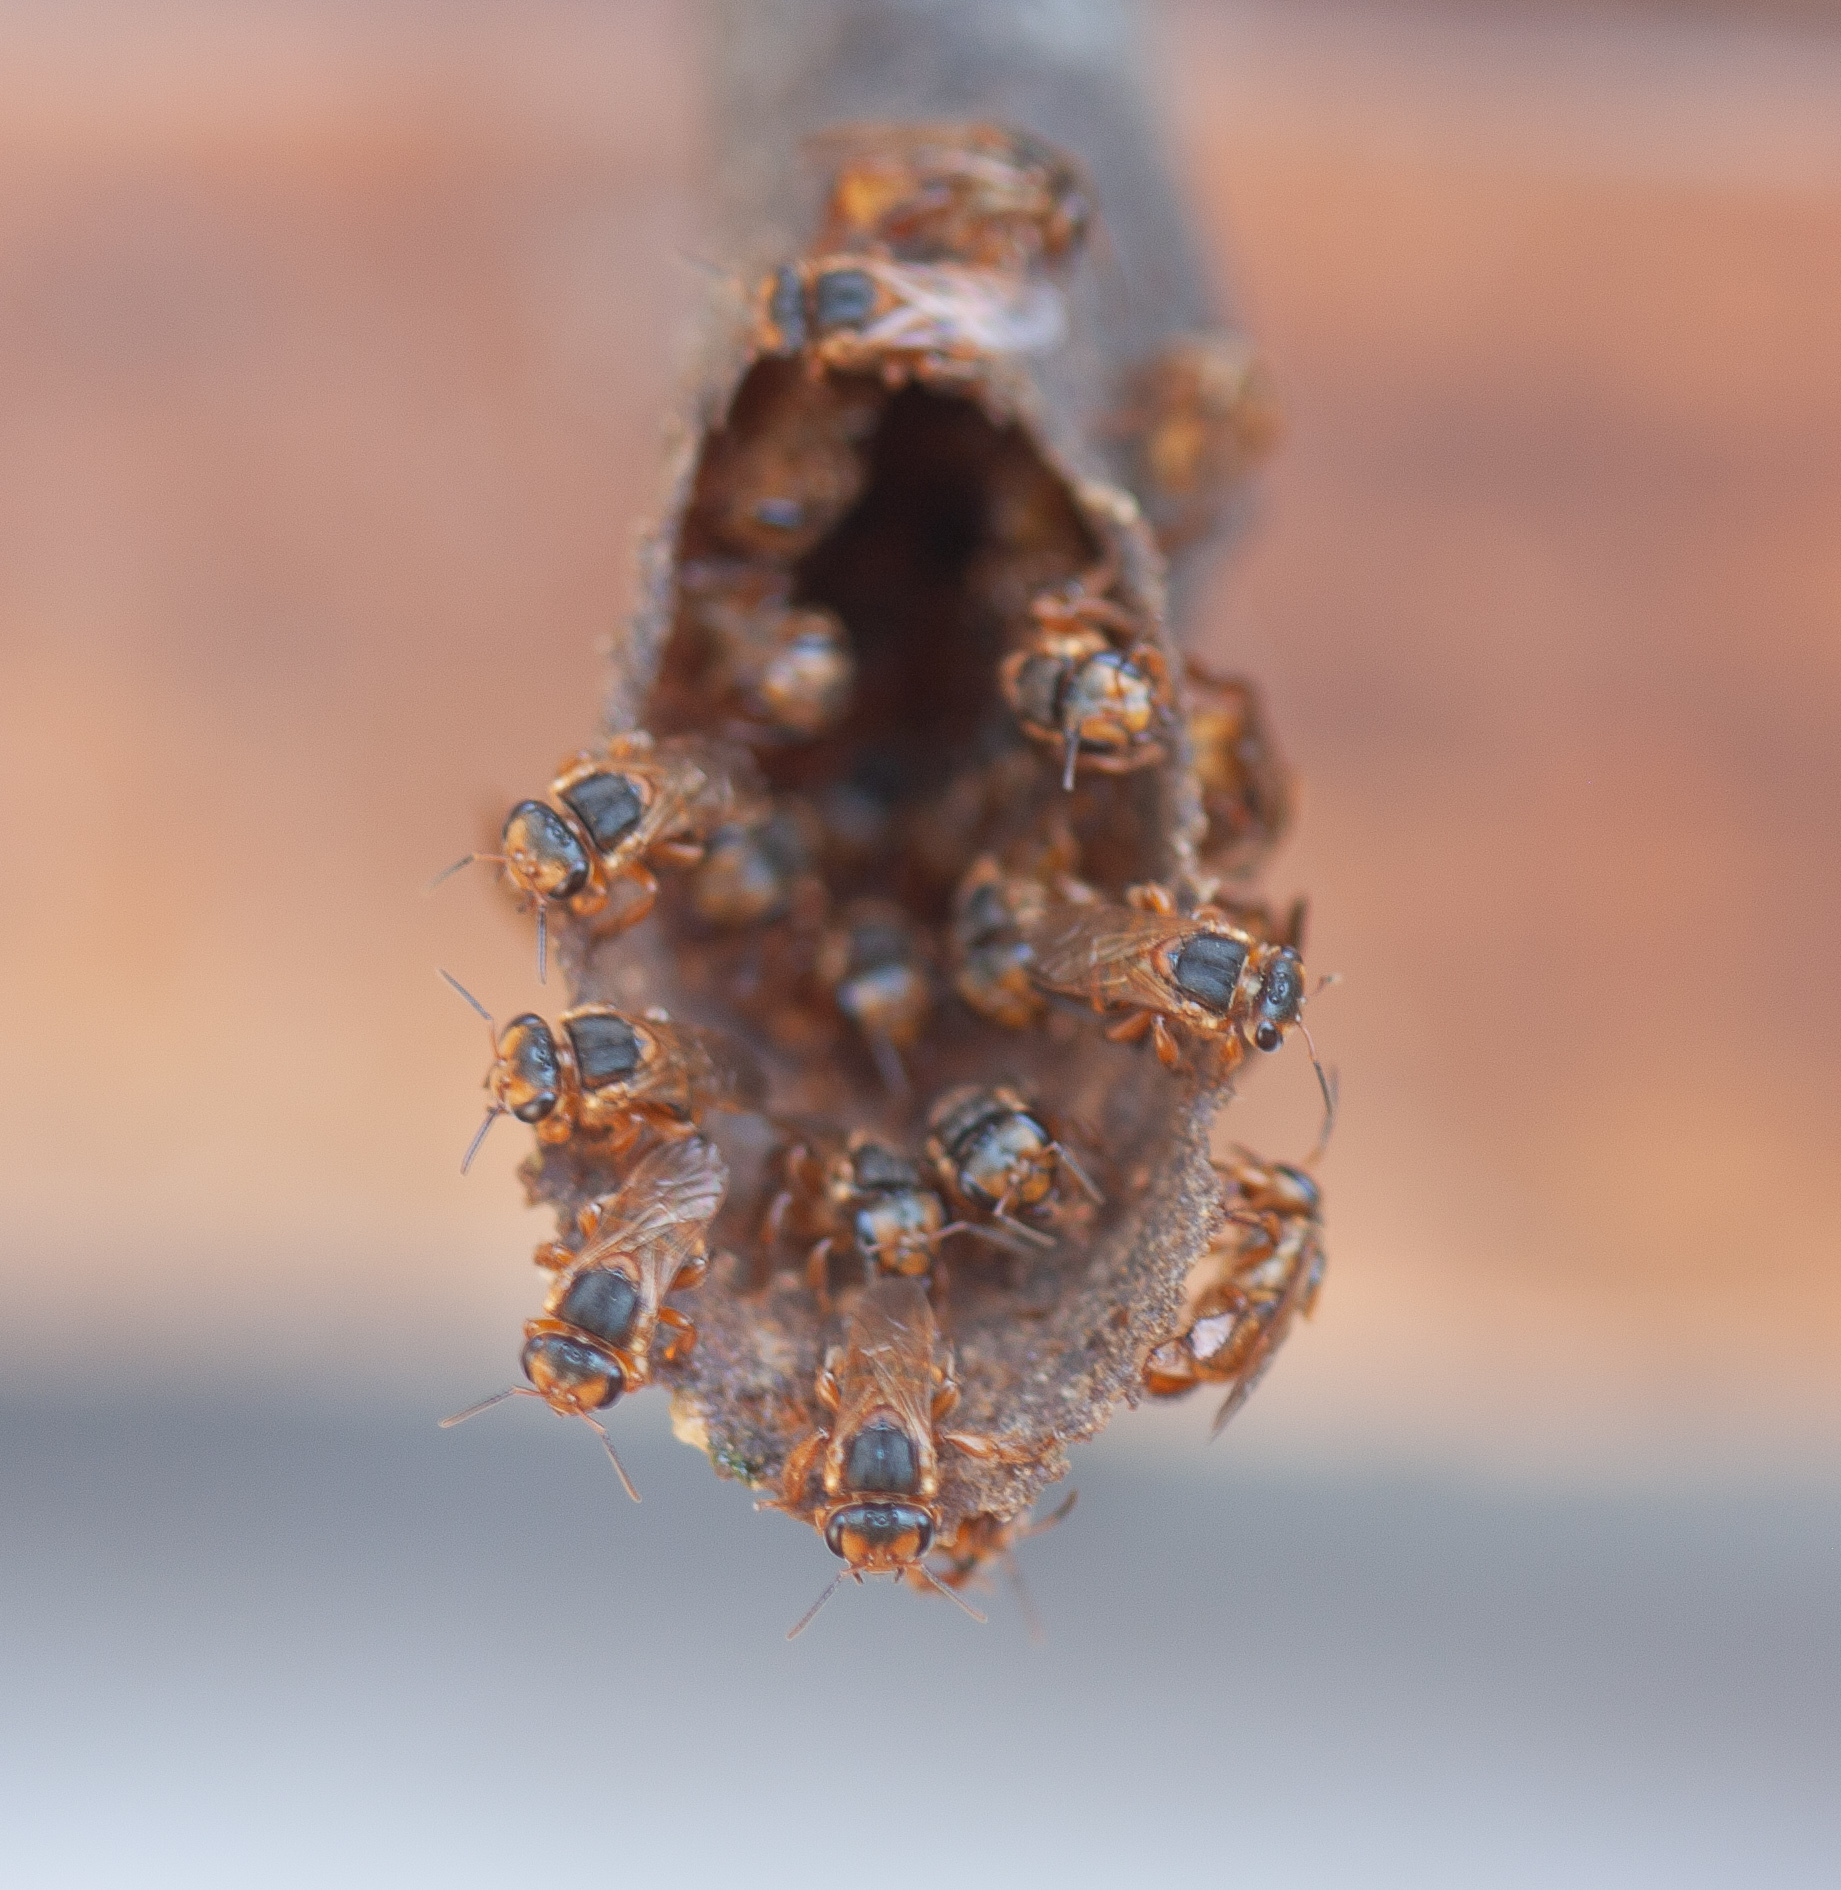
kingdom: Animalia
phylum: Arthropoda
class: Insecta
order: Hymenoptera
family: Apidae
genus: Scaptotrigona
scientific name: Scaptotrigona pectoralis
